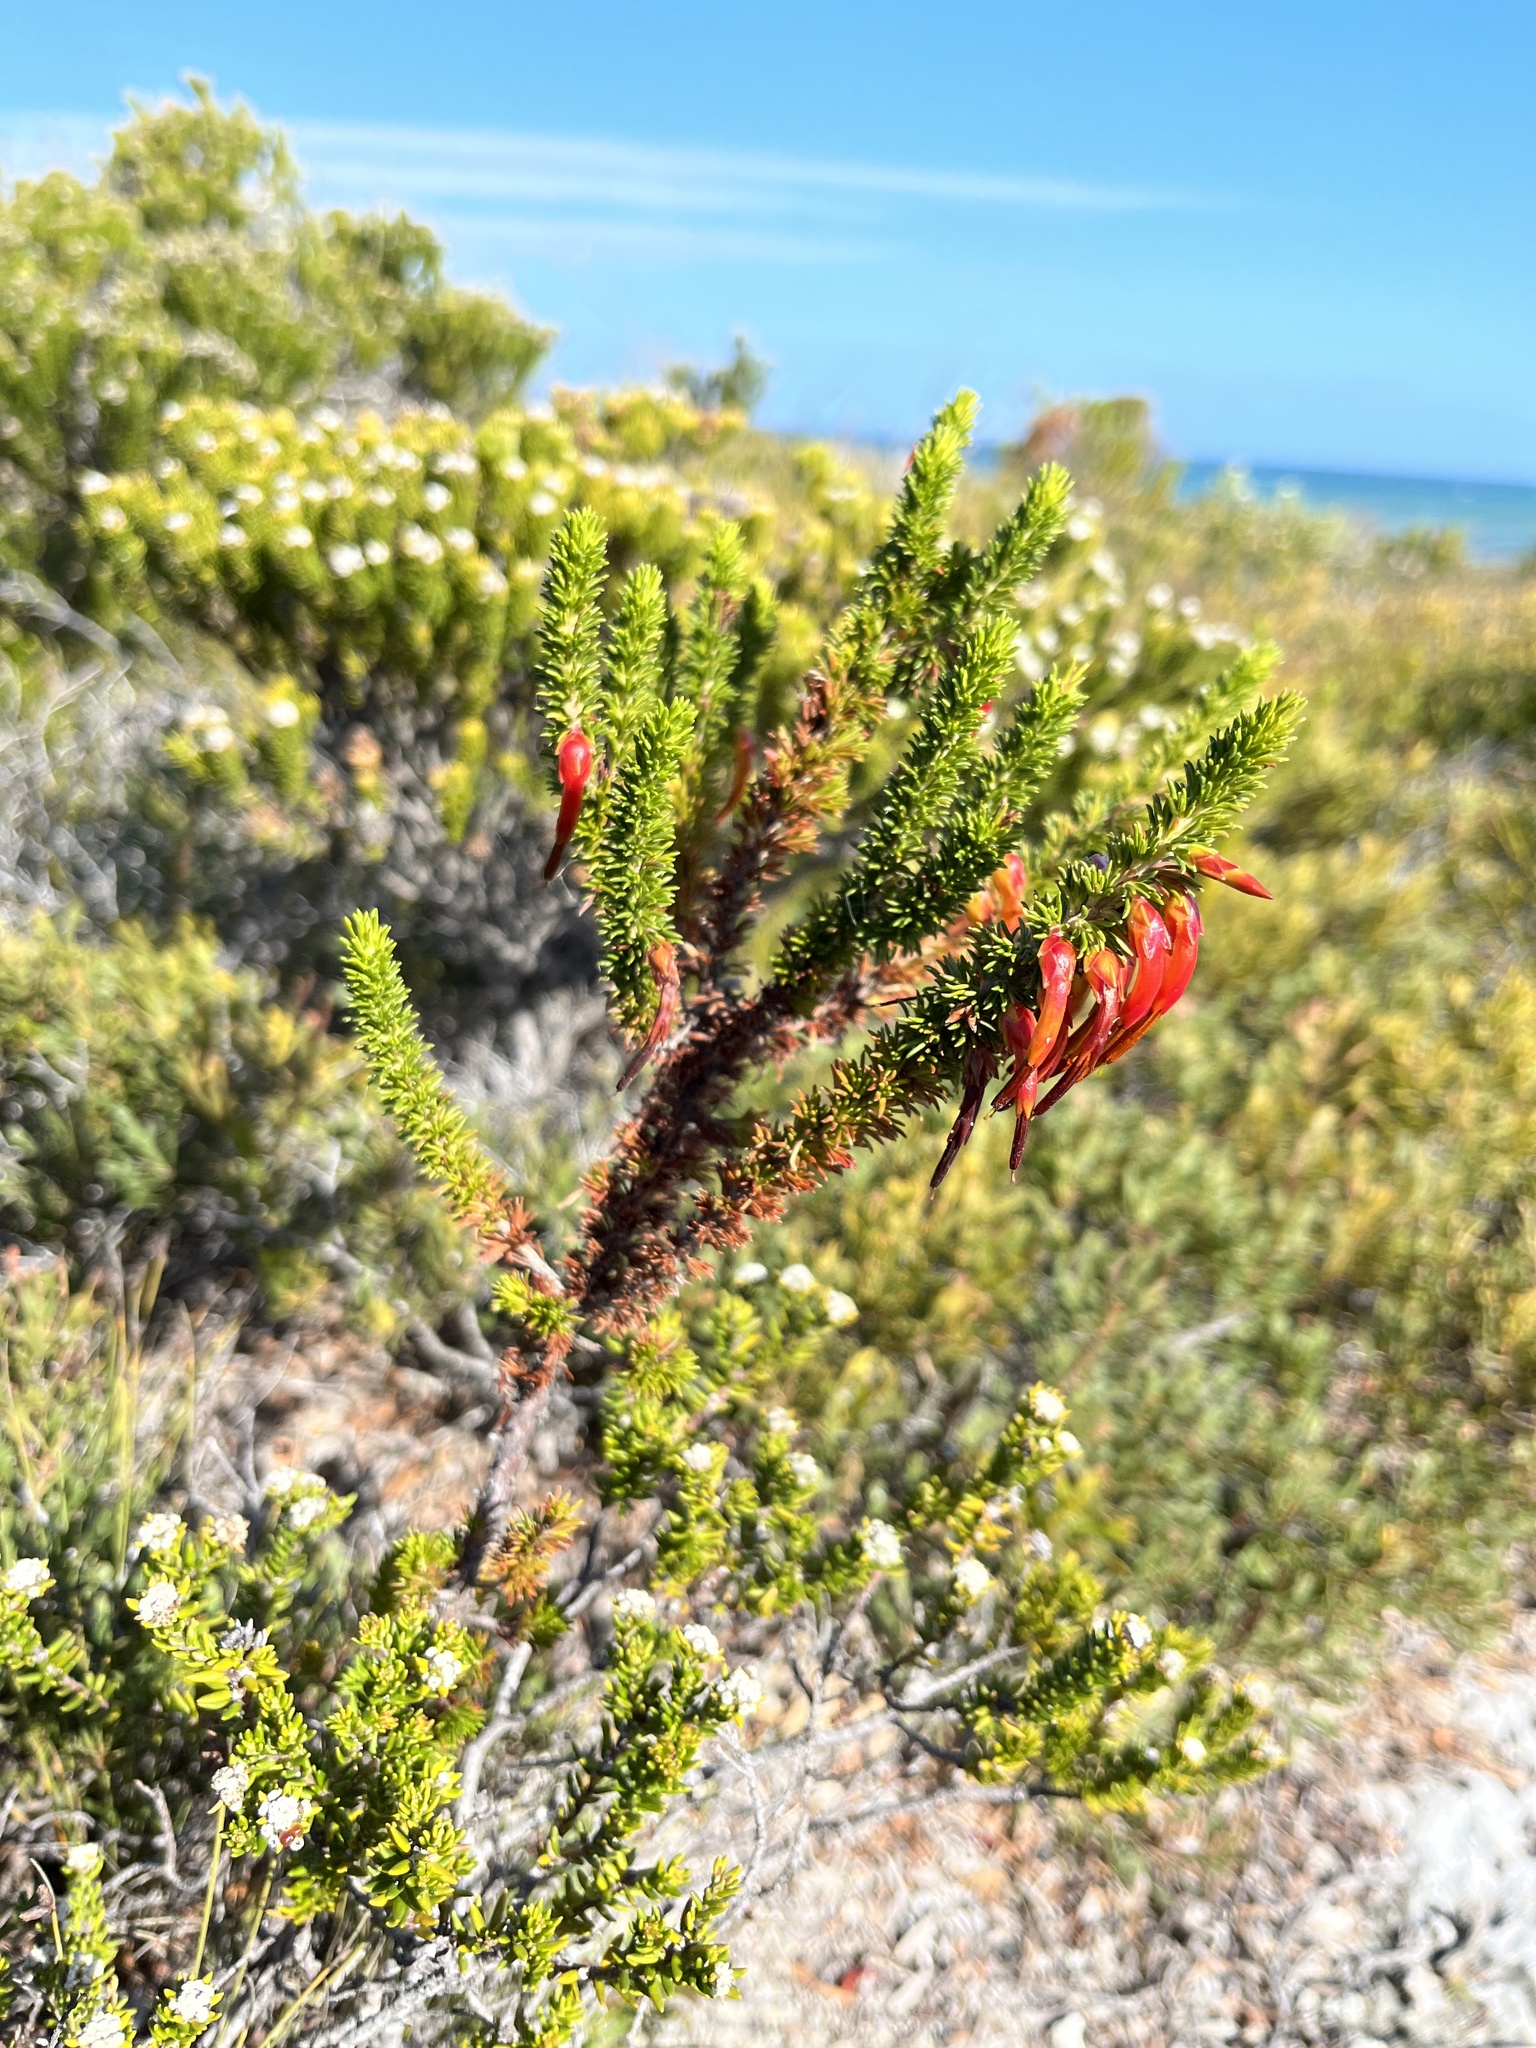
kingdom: Plantae
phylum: Tracheophyta
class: Magnoliopsida
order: Ericales
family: Ericaceae
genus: Erica
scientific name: Erica coccinea
